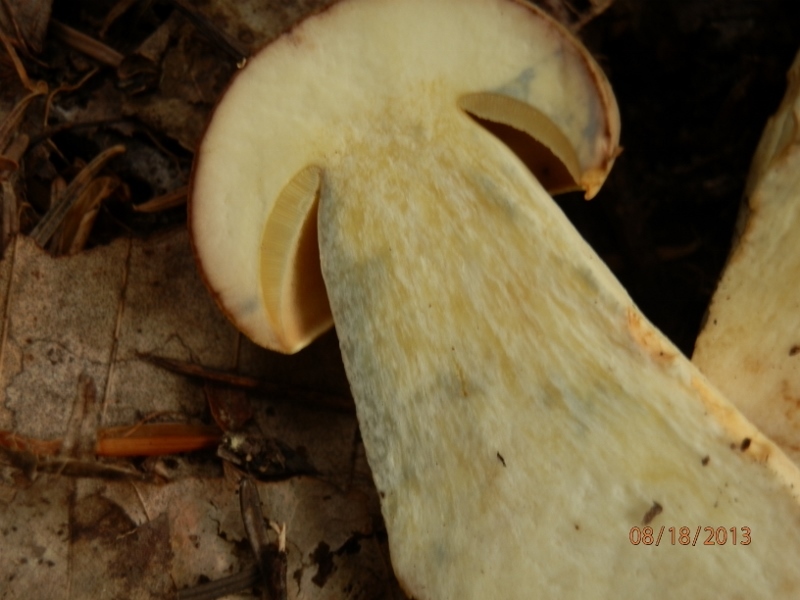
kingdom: Fungi
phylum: Basidiomycota
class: Agaricomycetes
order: Boletales
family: Boletaceae
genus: Boletus
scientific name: Boletus huronensis
